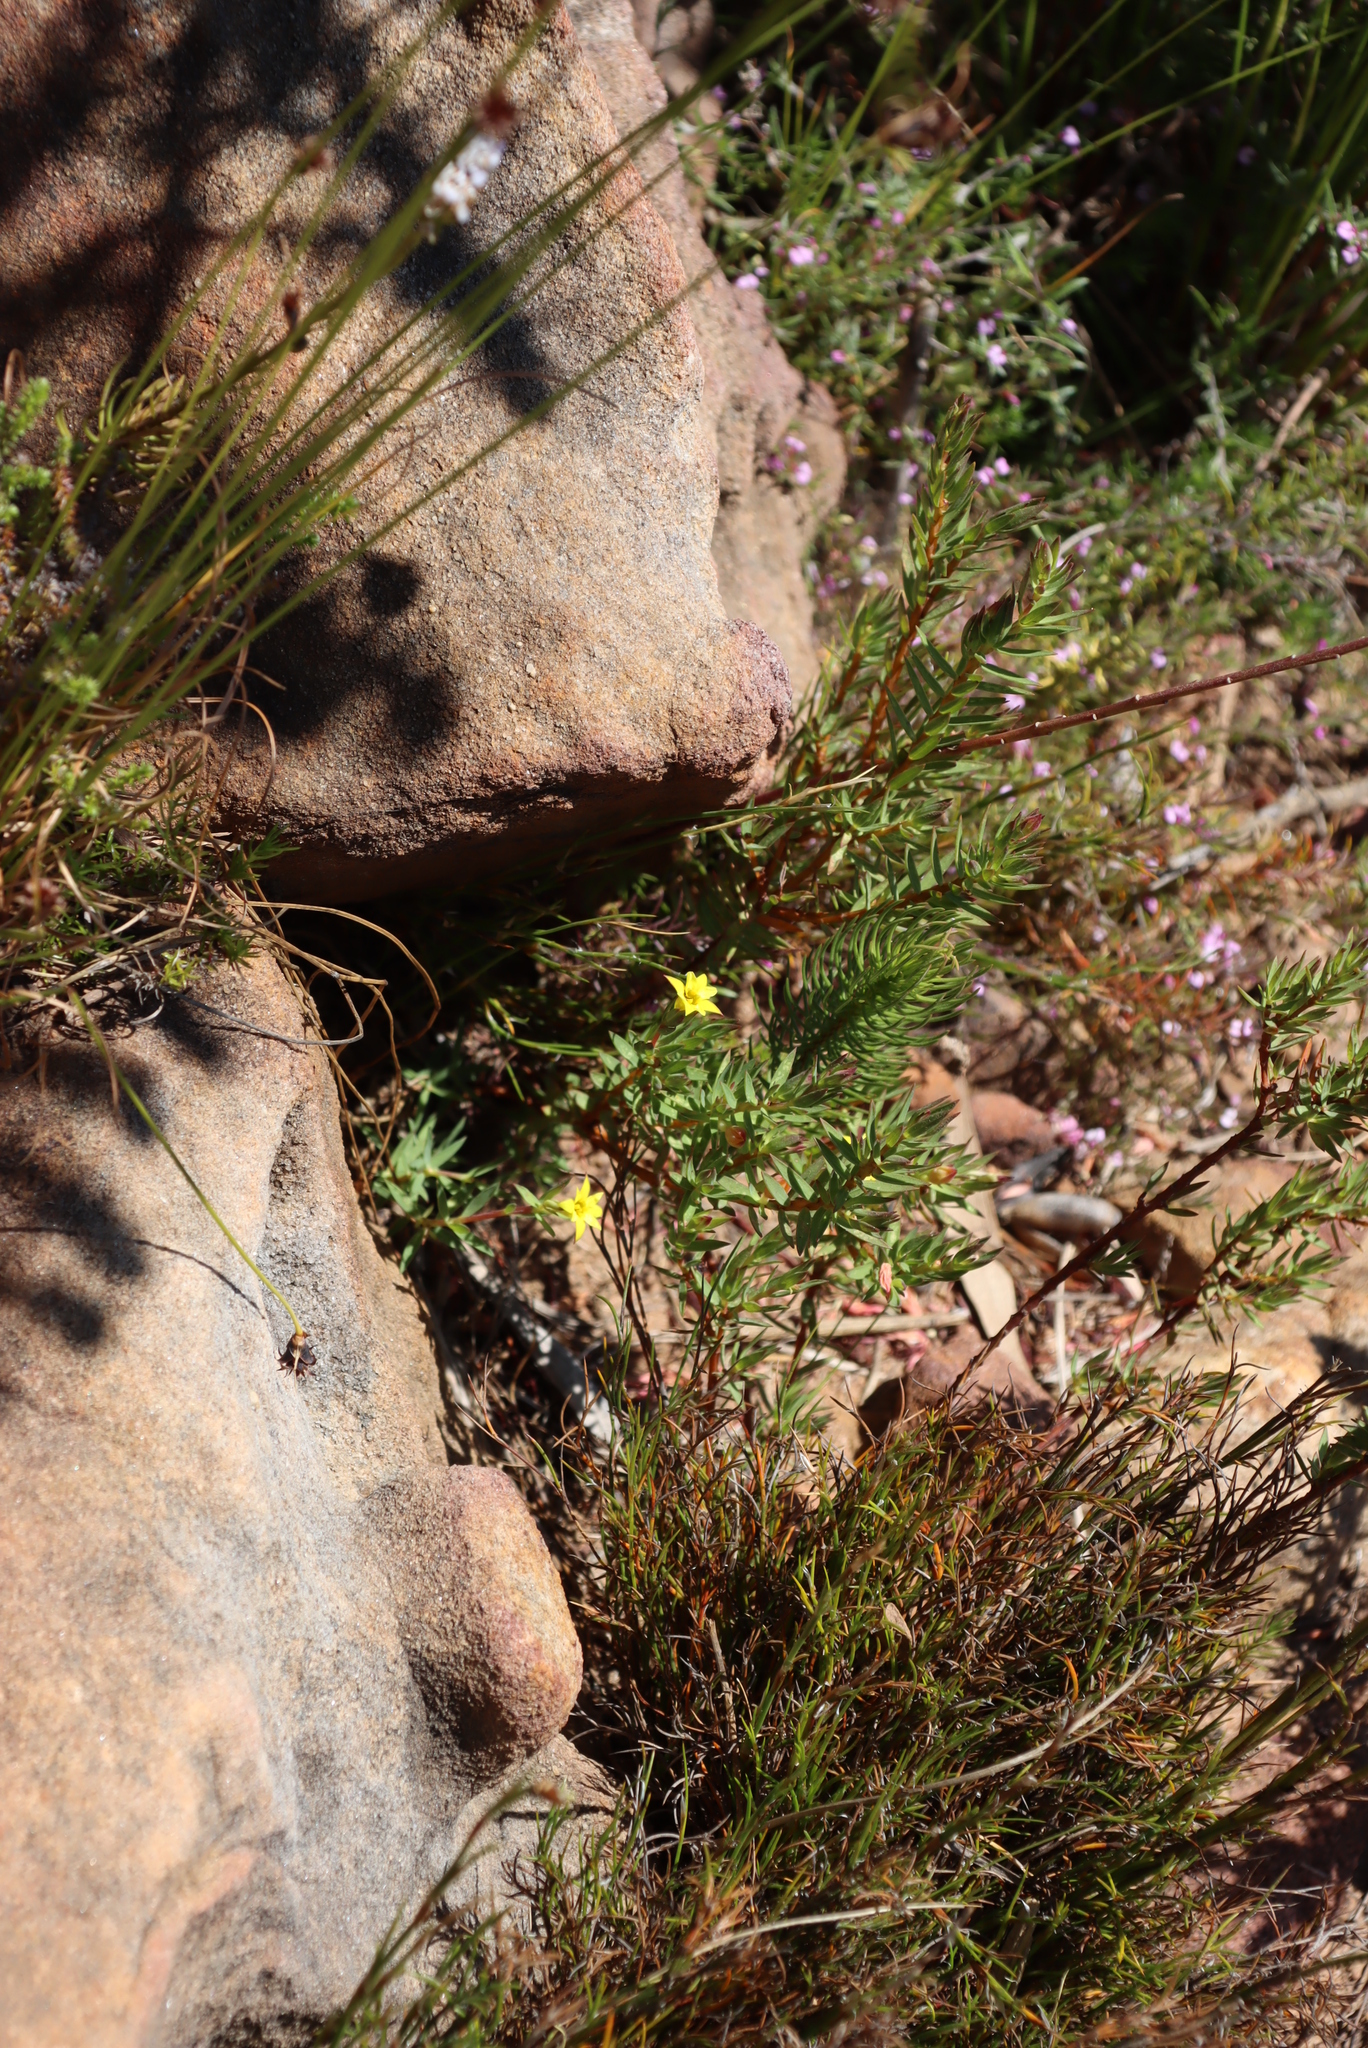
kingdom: Plantae
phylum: Tracheophyta
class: Magnoliopsida
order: Malvales
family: Thymelaeaceae
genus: Gnidia
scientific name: Gnidia juniperifolia
